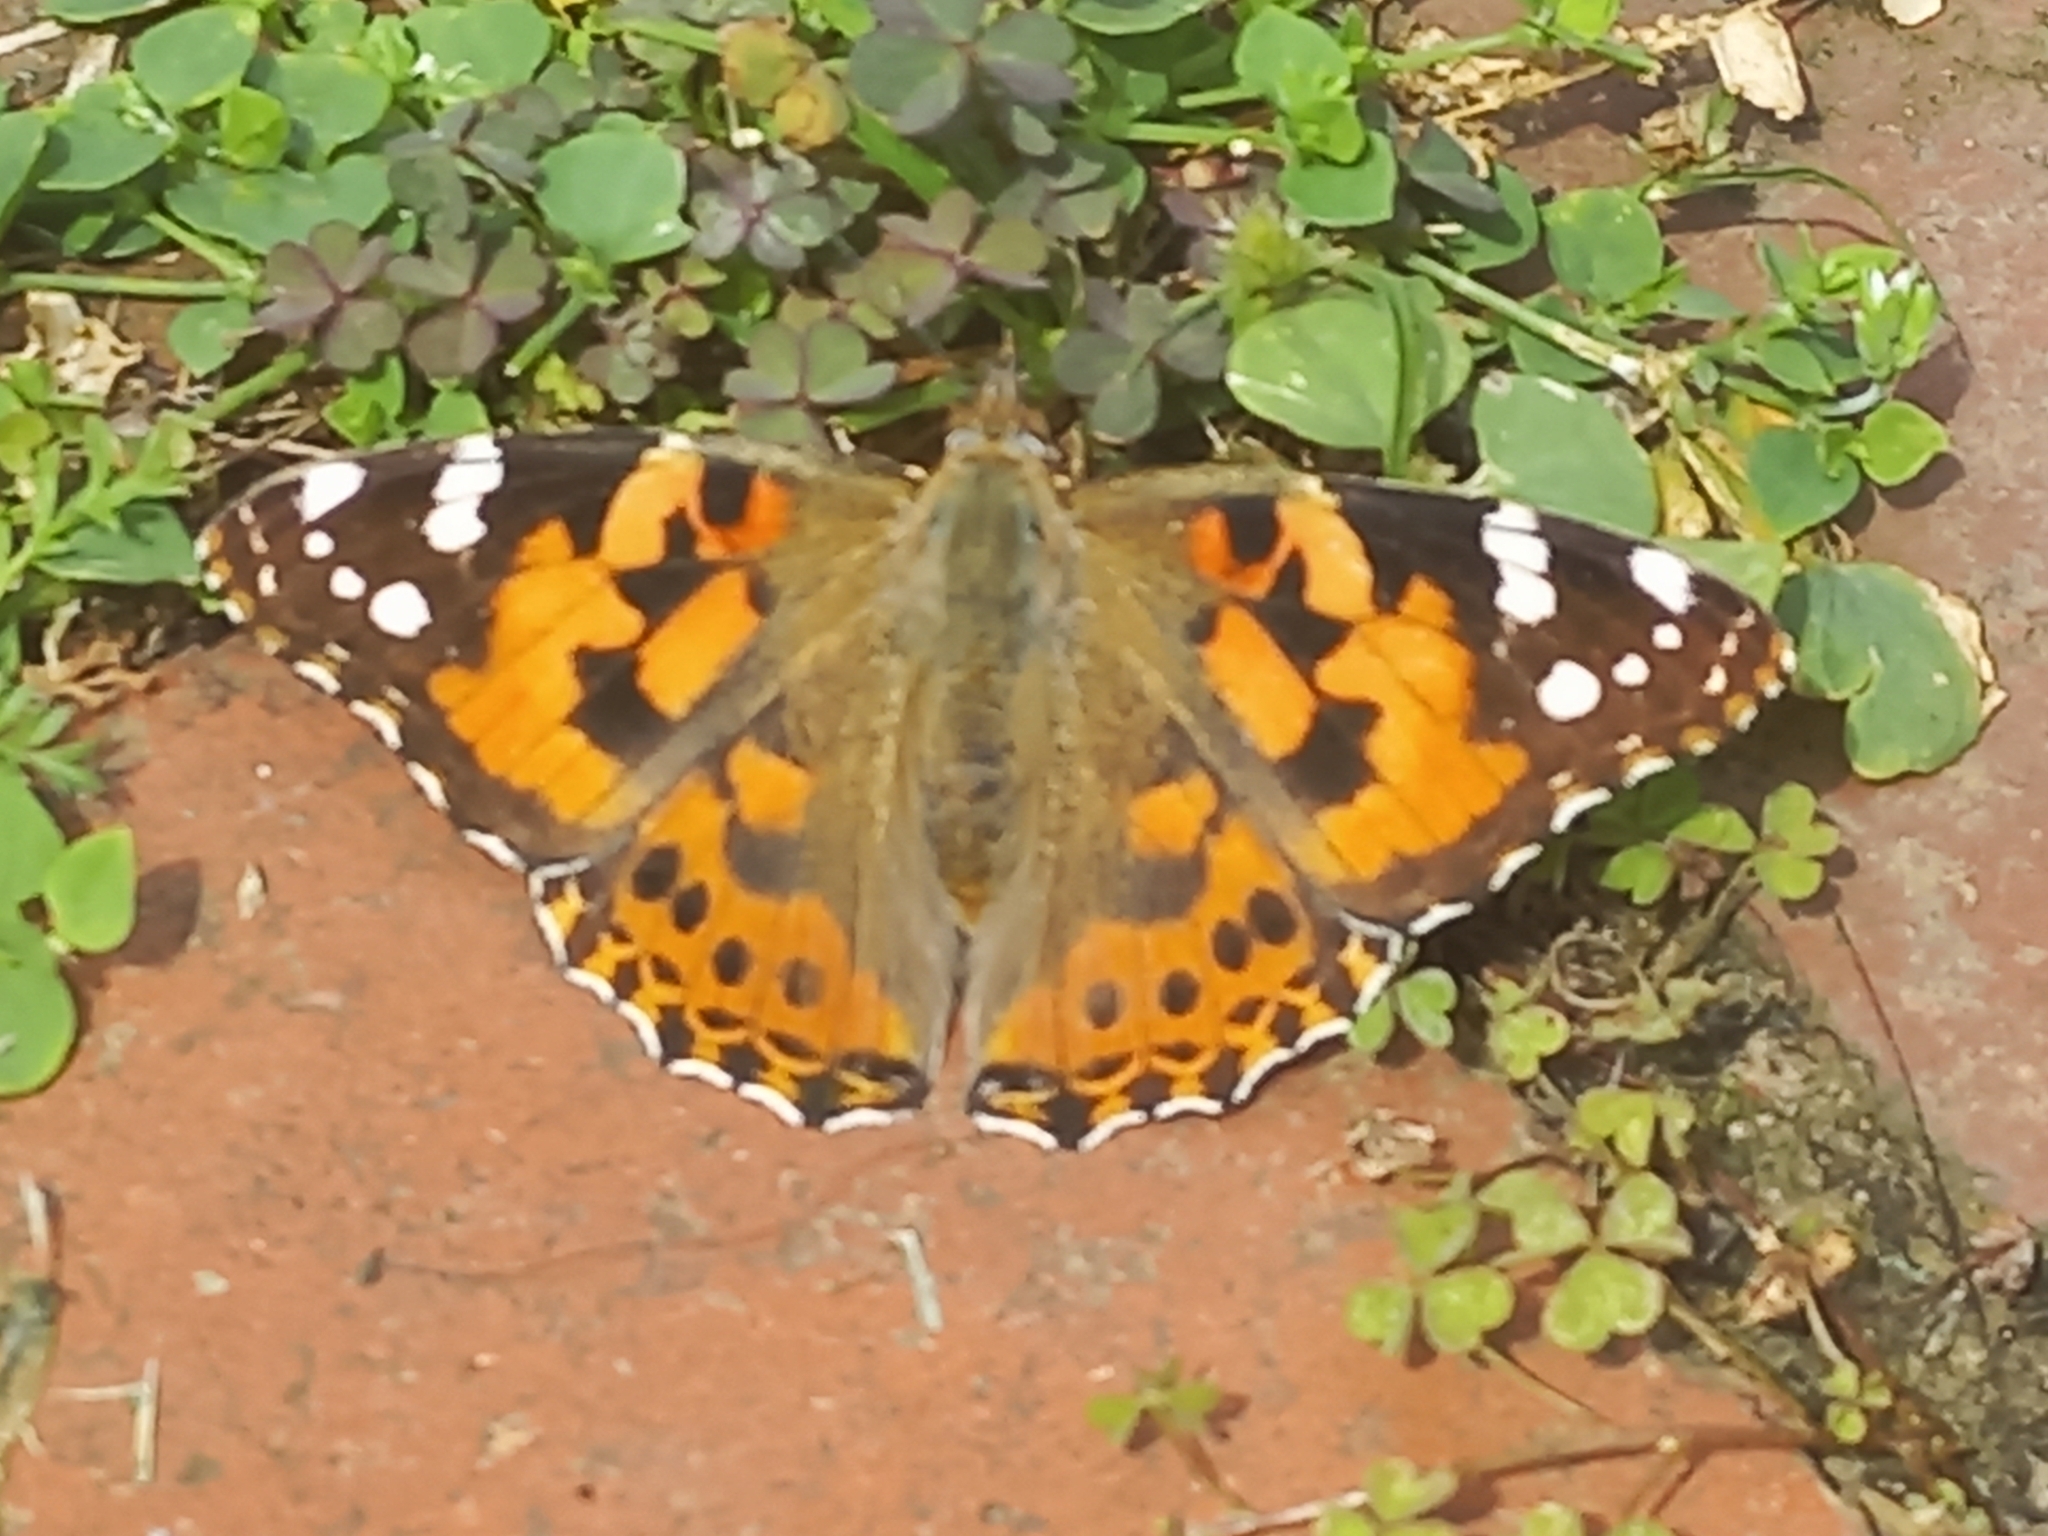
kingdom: Animalia
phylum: Arthropoda
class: Insecta
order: Lepidoptera
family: Nymphalidae
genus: Vanessa
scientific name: Vanessa cardui
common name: Painted lady
